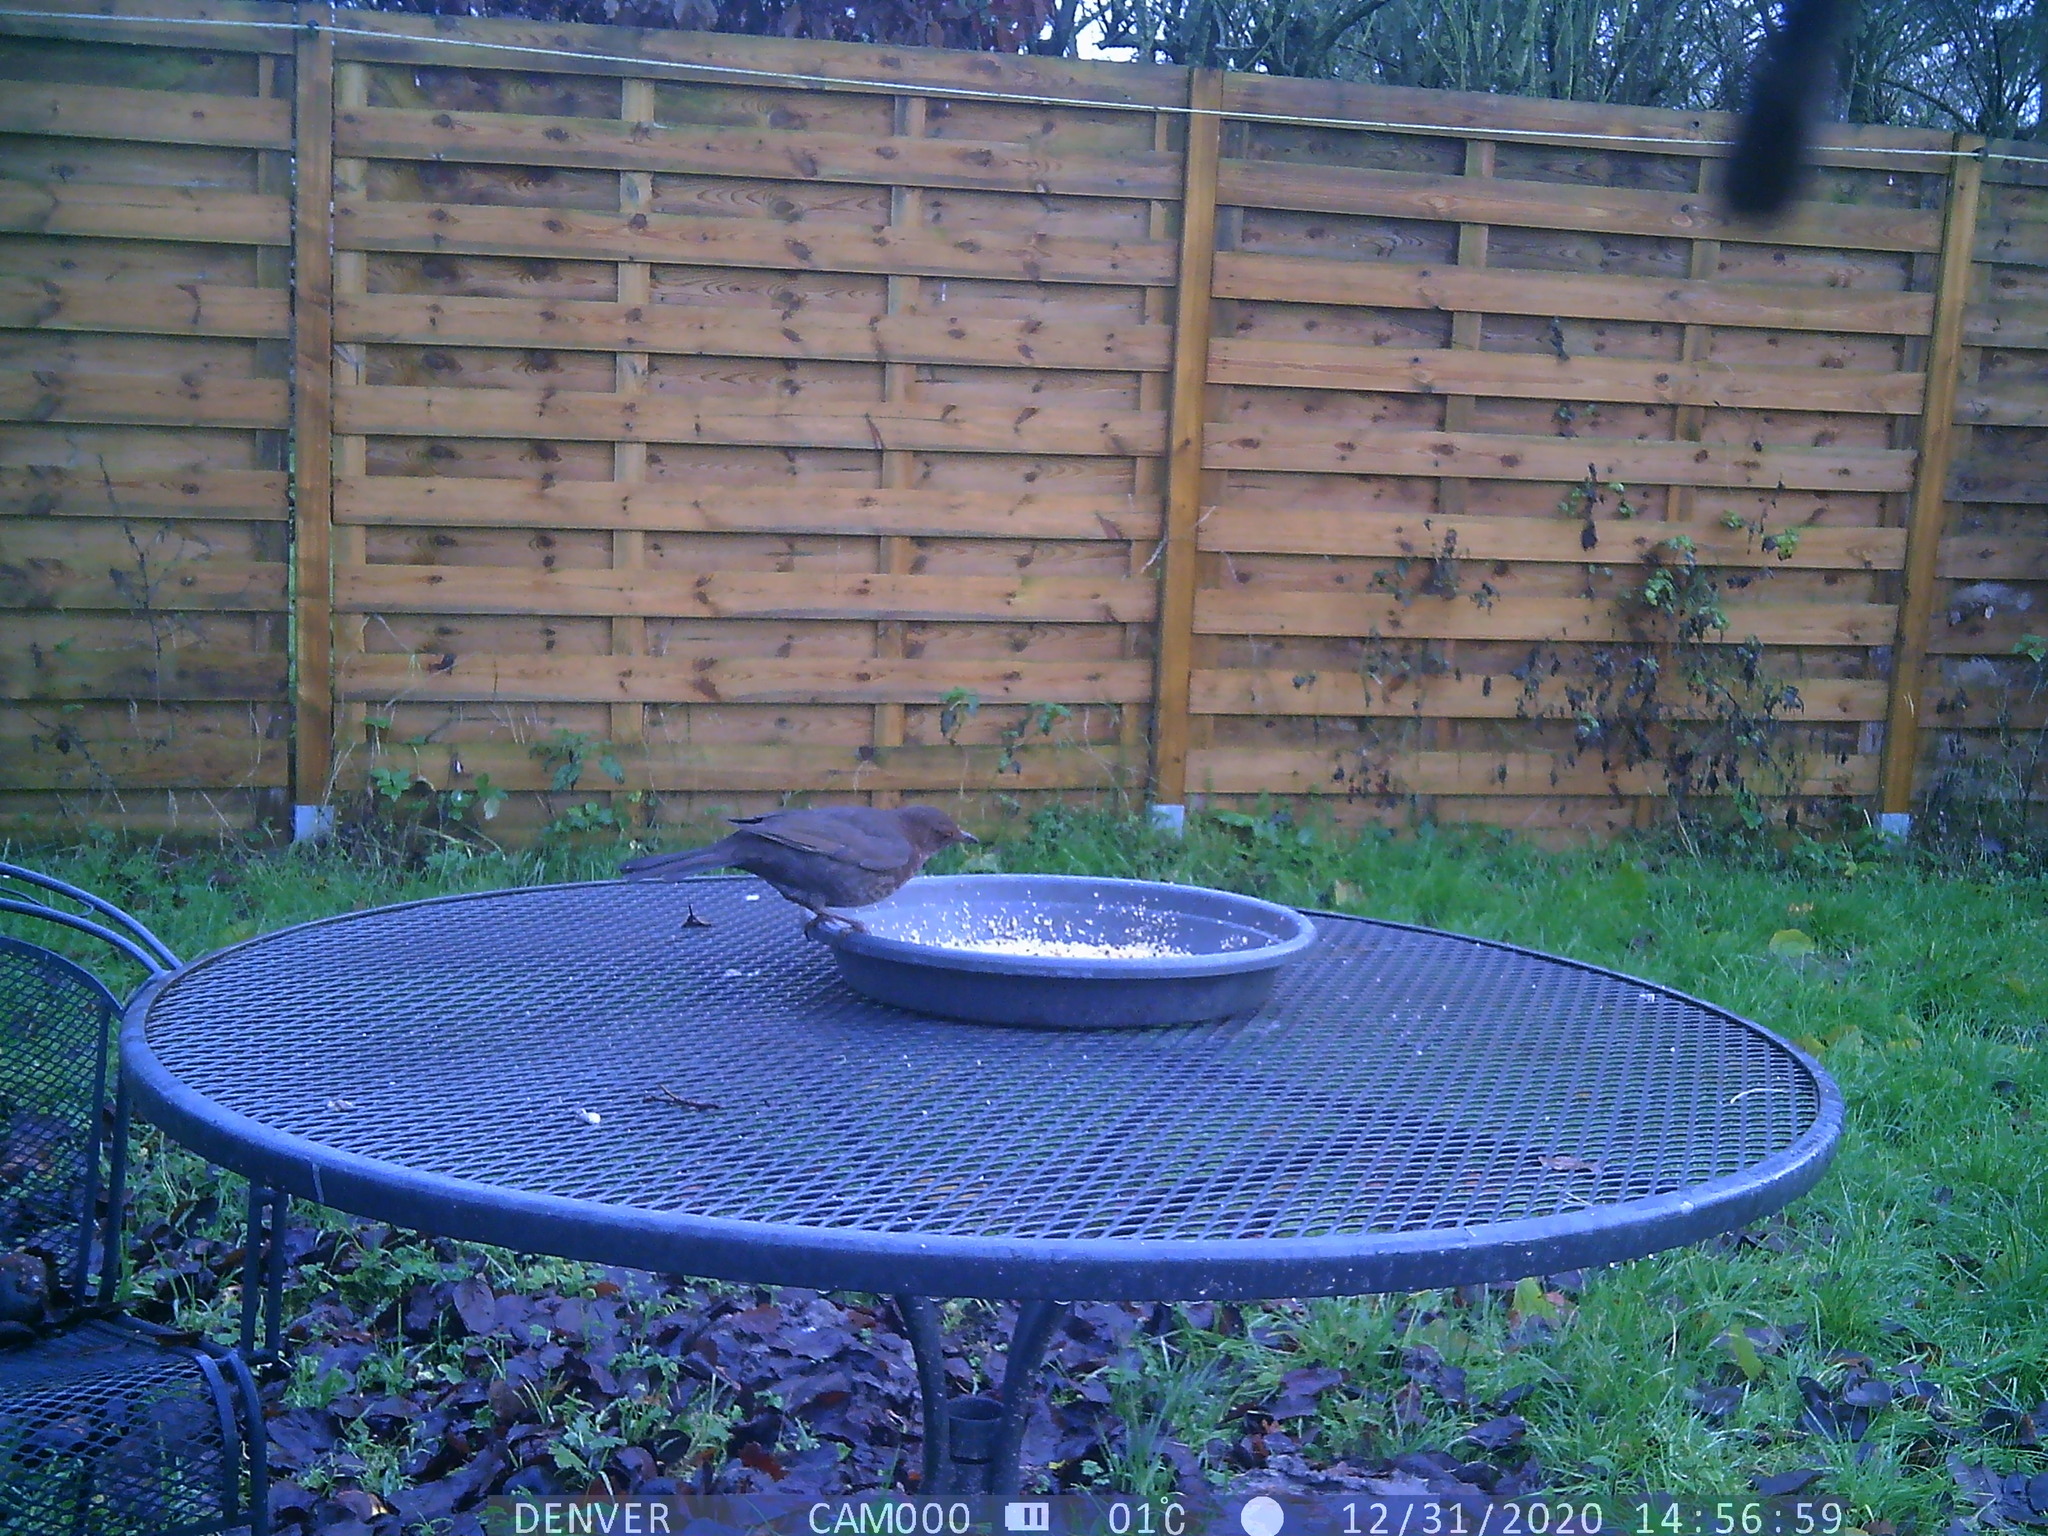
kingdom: Animalia
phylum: Chordata
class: Aves
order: Passeriformes
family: Turdidae
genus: Turdus
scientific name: Turdus merula
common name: Common blackbird
